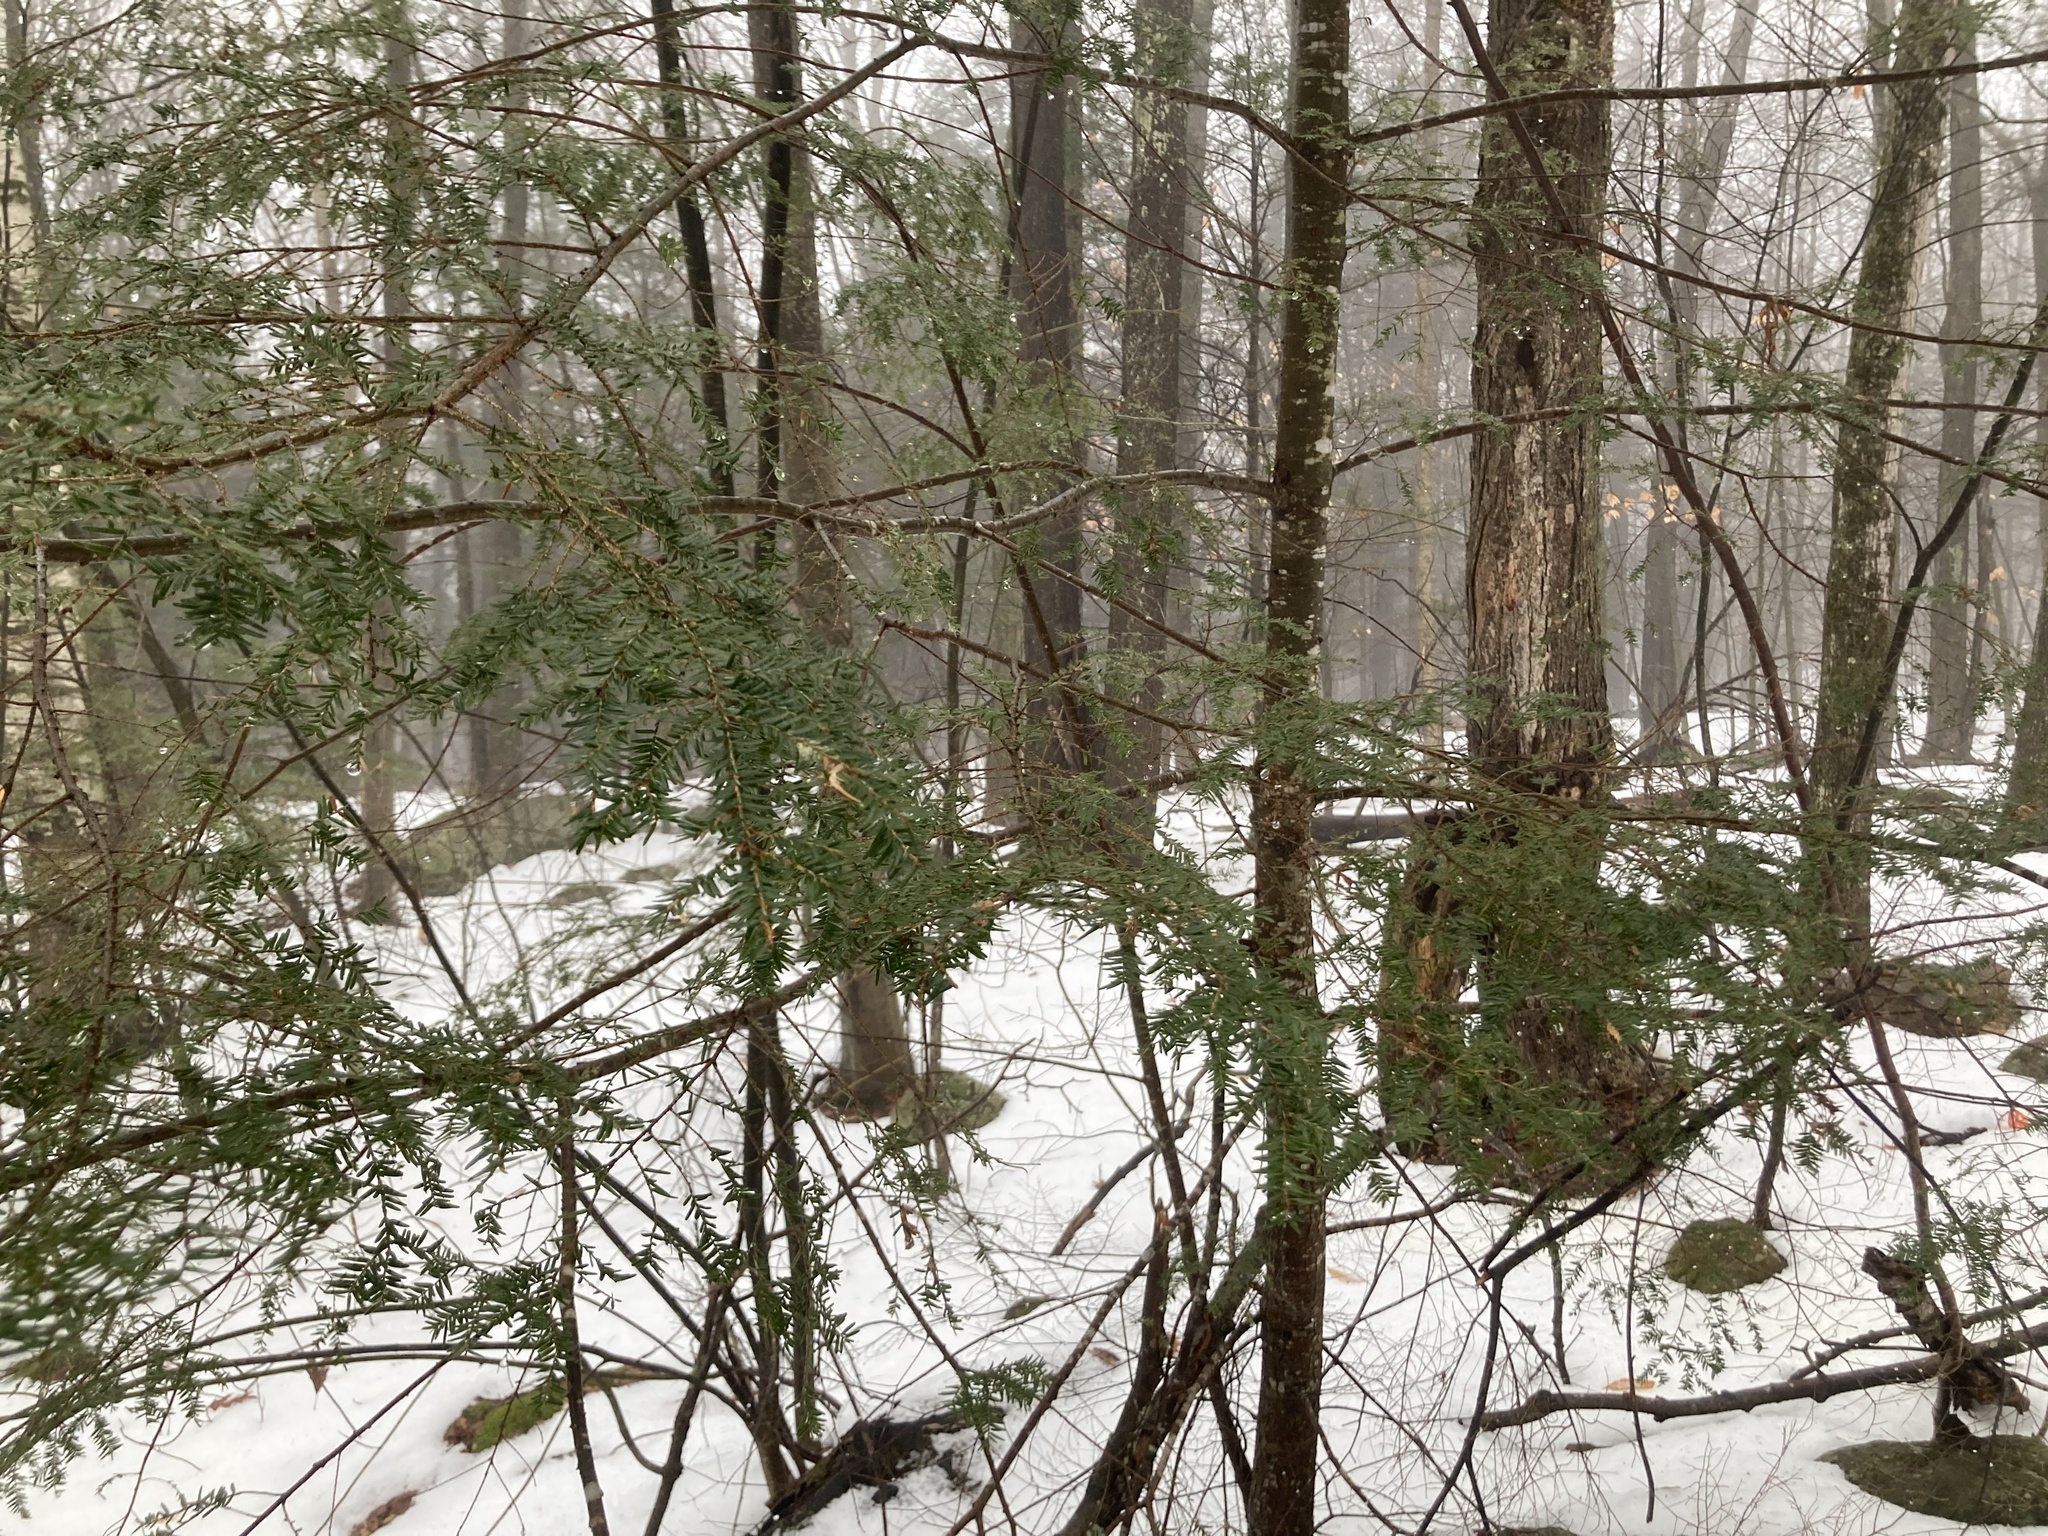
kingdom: Plantae
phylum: Tracheophyta
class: Pinopsida
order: Pinales
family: Pinaceae
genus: Tsuga
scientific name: Tsuga canadensis
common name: Eastern hemlock
